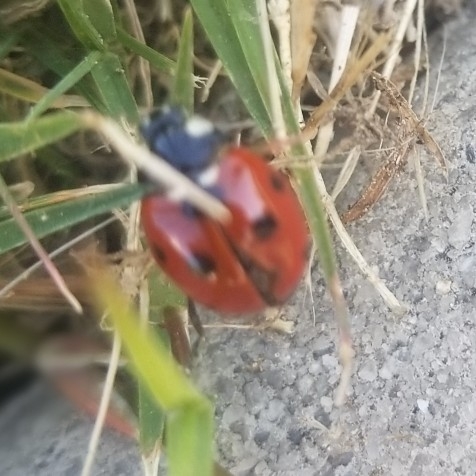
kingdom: Animalia
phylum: Arthropoda
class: Insecta
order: Coleoptera
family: Coccinellidae
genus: Coccinella
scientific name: Coccinella septempunctata
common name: Sevenspotted lady beetle
